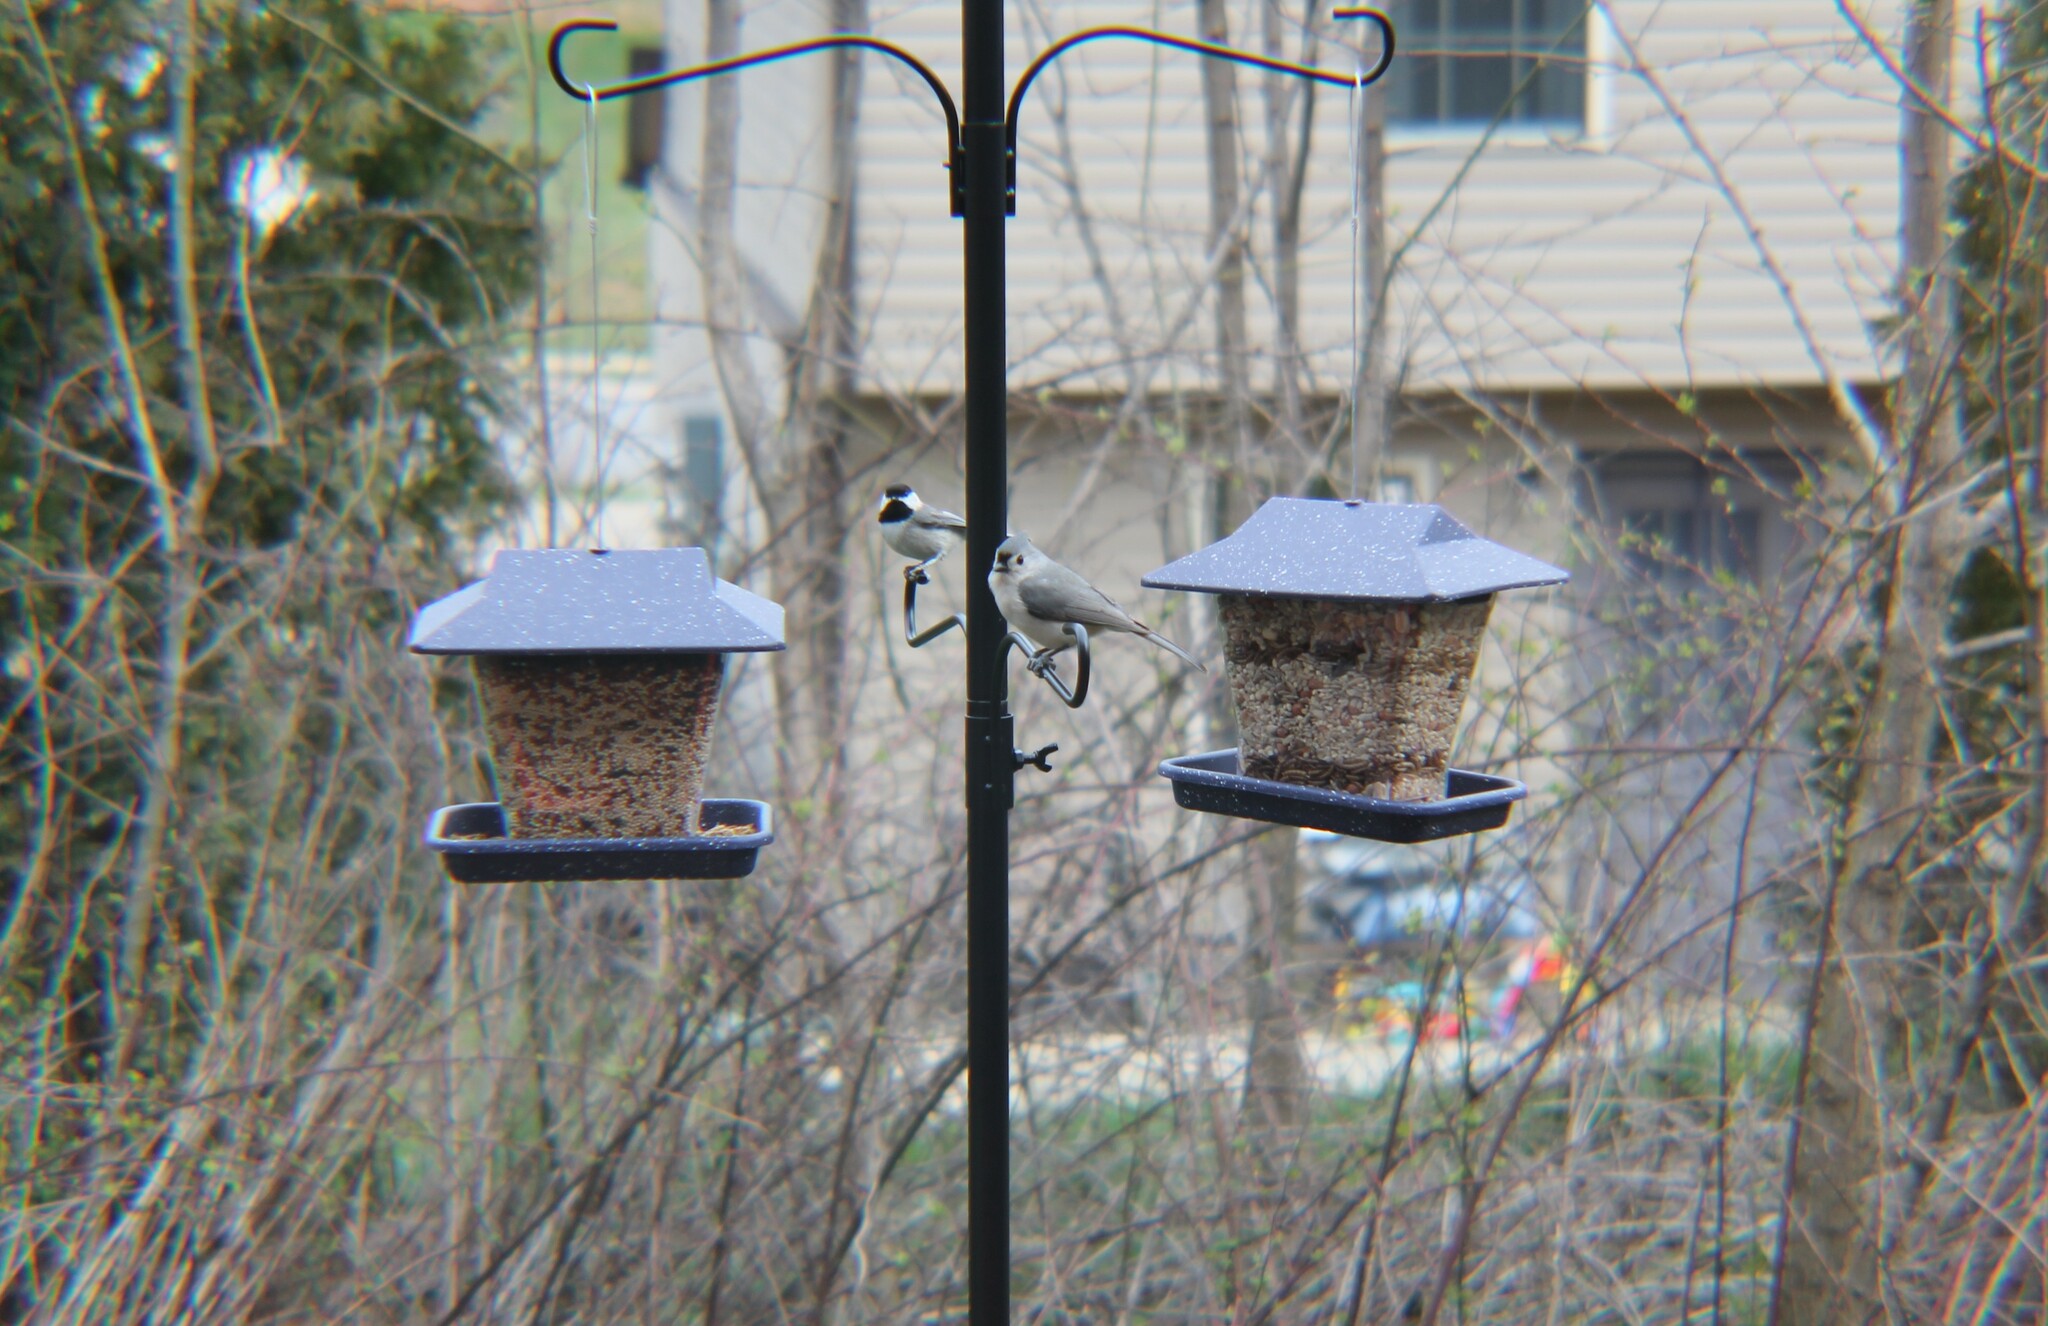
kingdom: Animalia
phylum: Chordata
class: Aves
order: Passeriformes
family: Paridae
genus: Baeolophus
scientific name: Baeolophus bicolor
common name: Tufted titmouse
